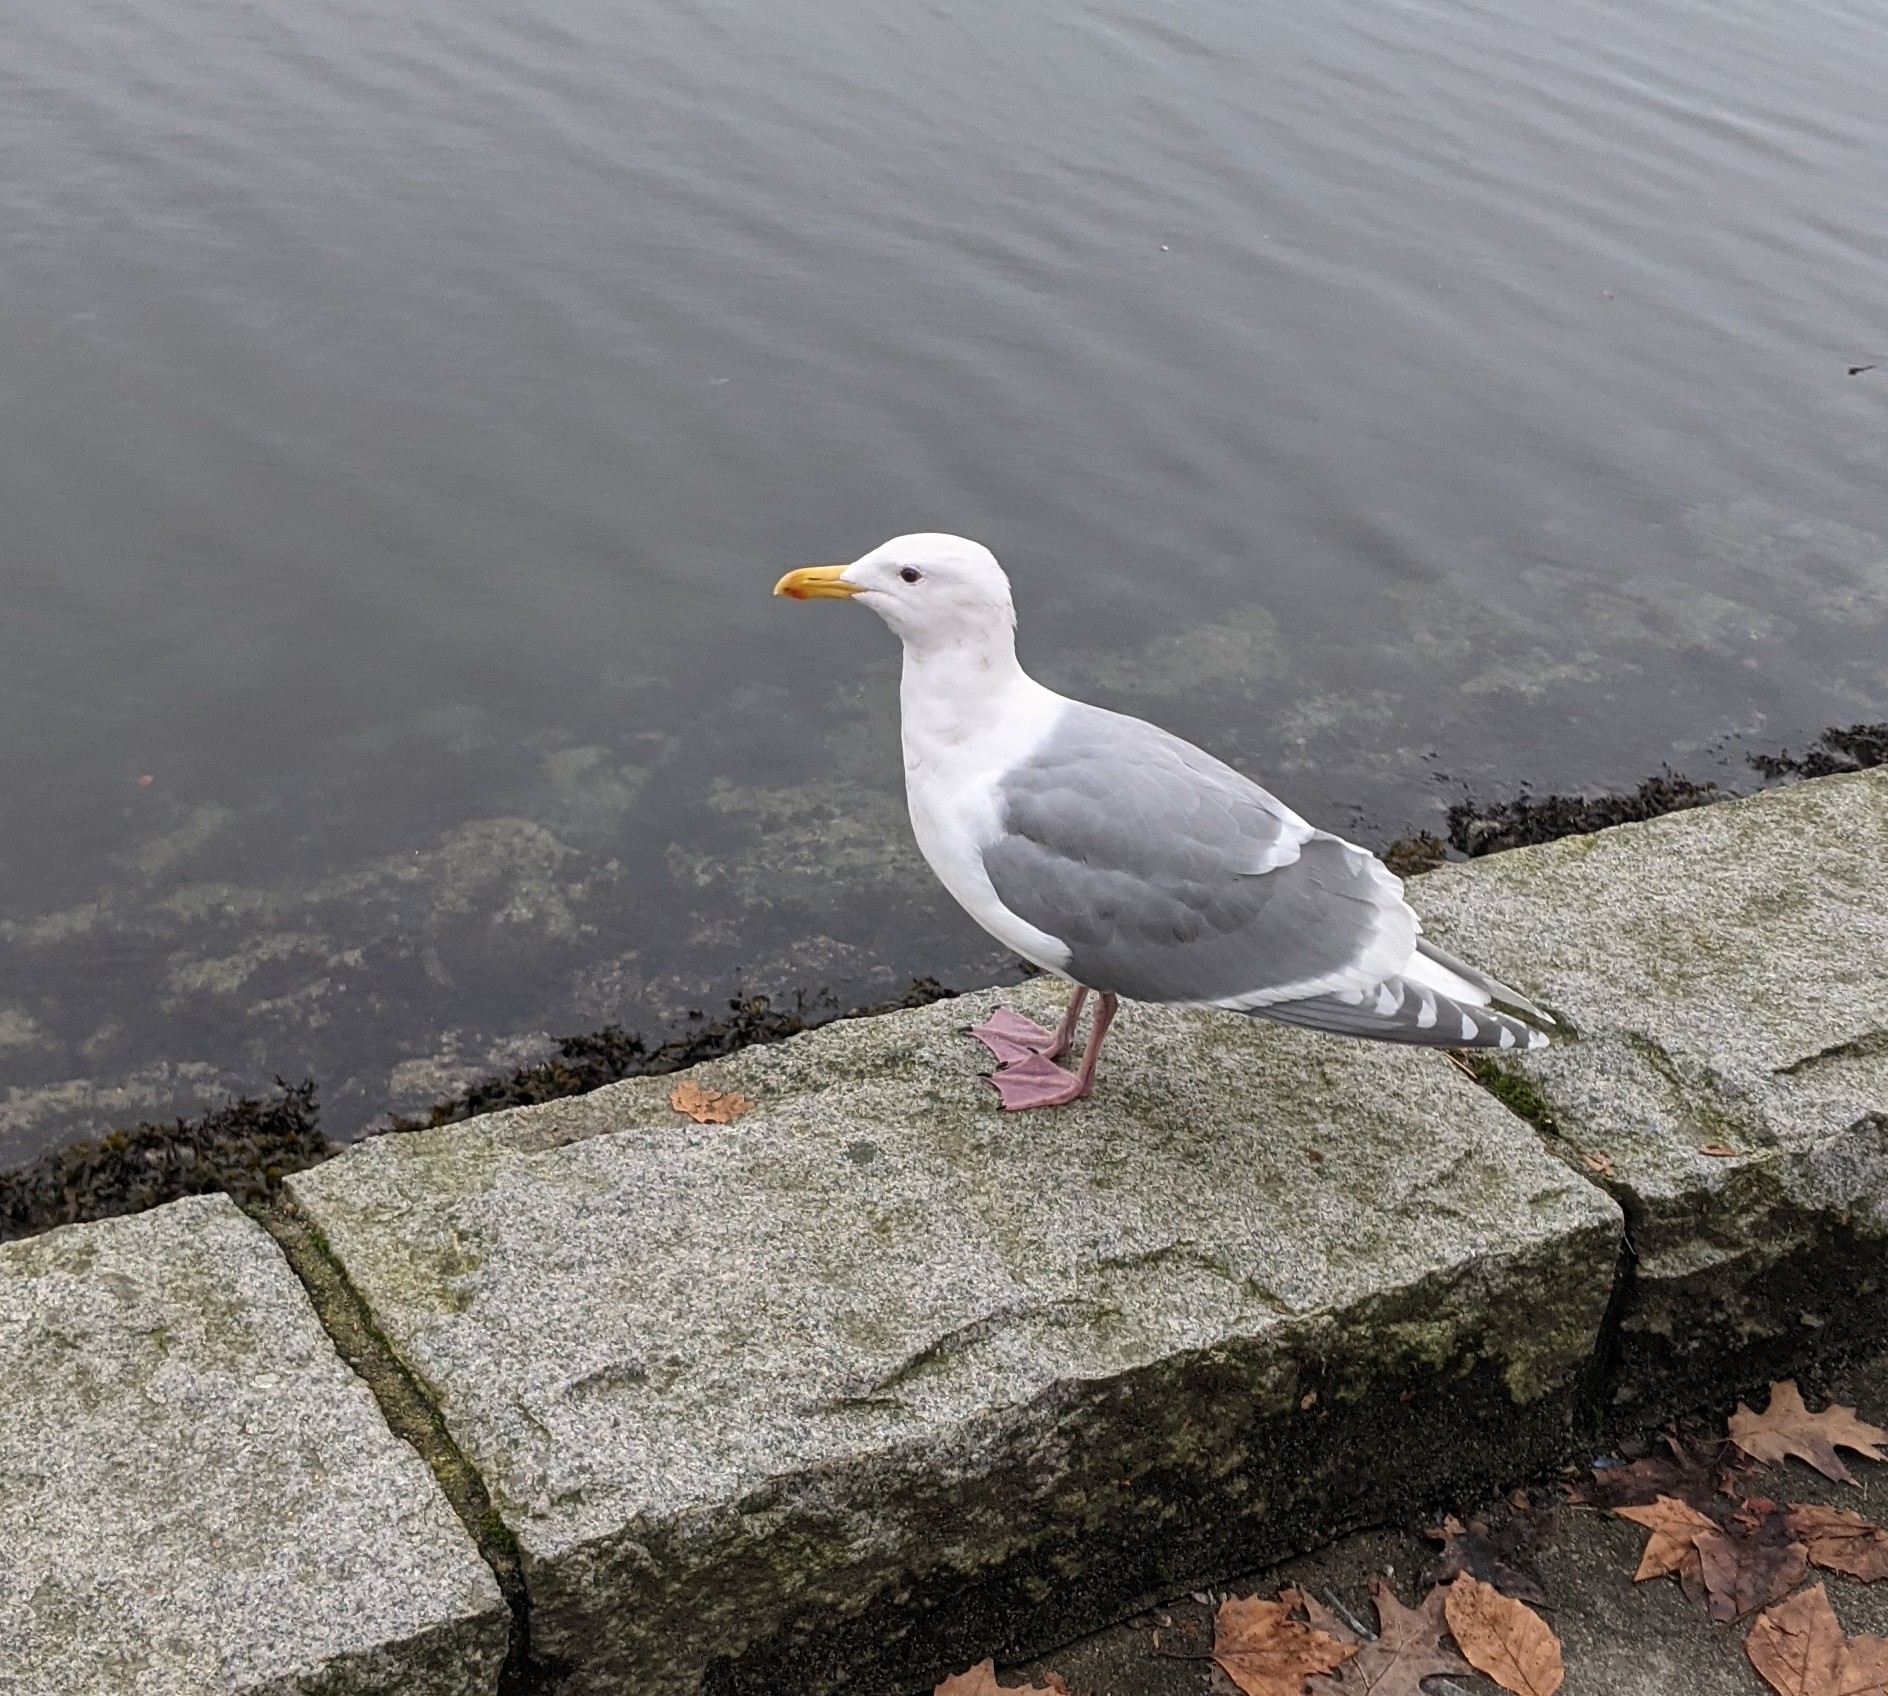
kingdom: Animalia
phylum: Chordata
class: Aves
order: Charadriiformes
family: Laridae
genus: Larus
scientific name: Larus
